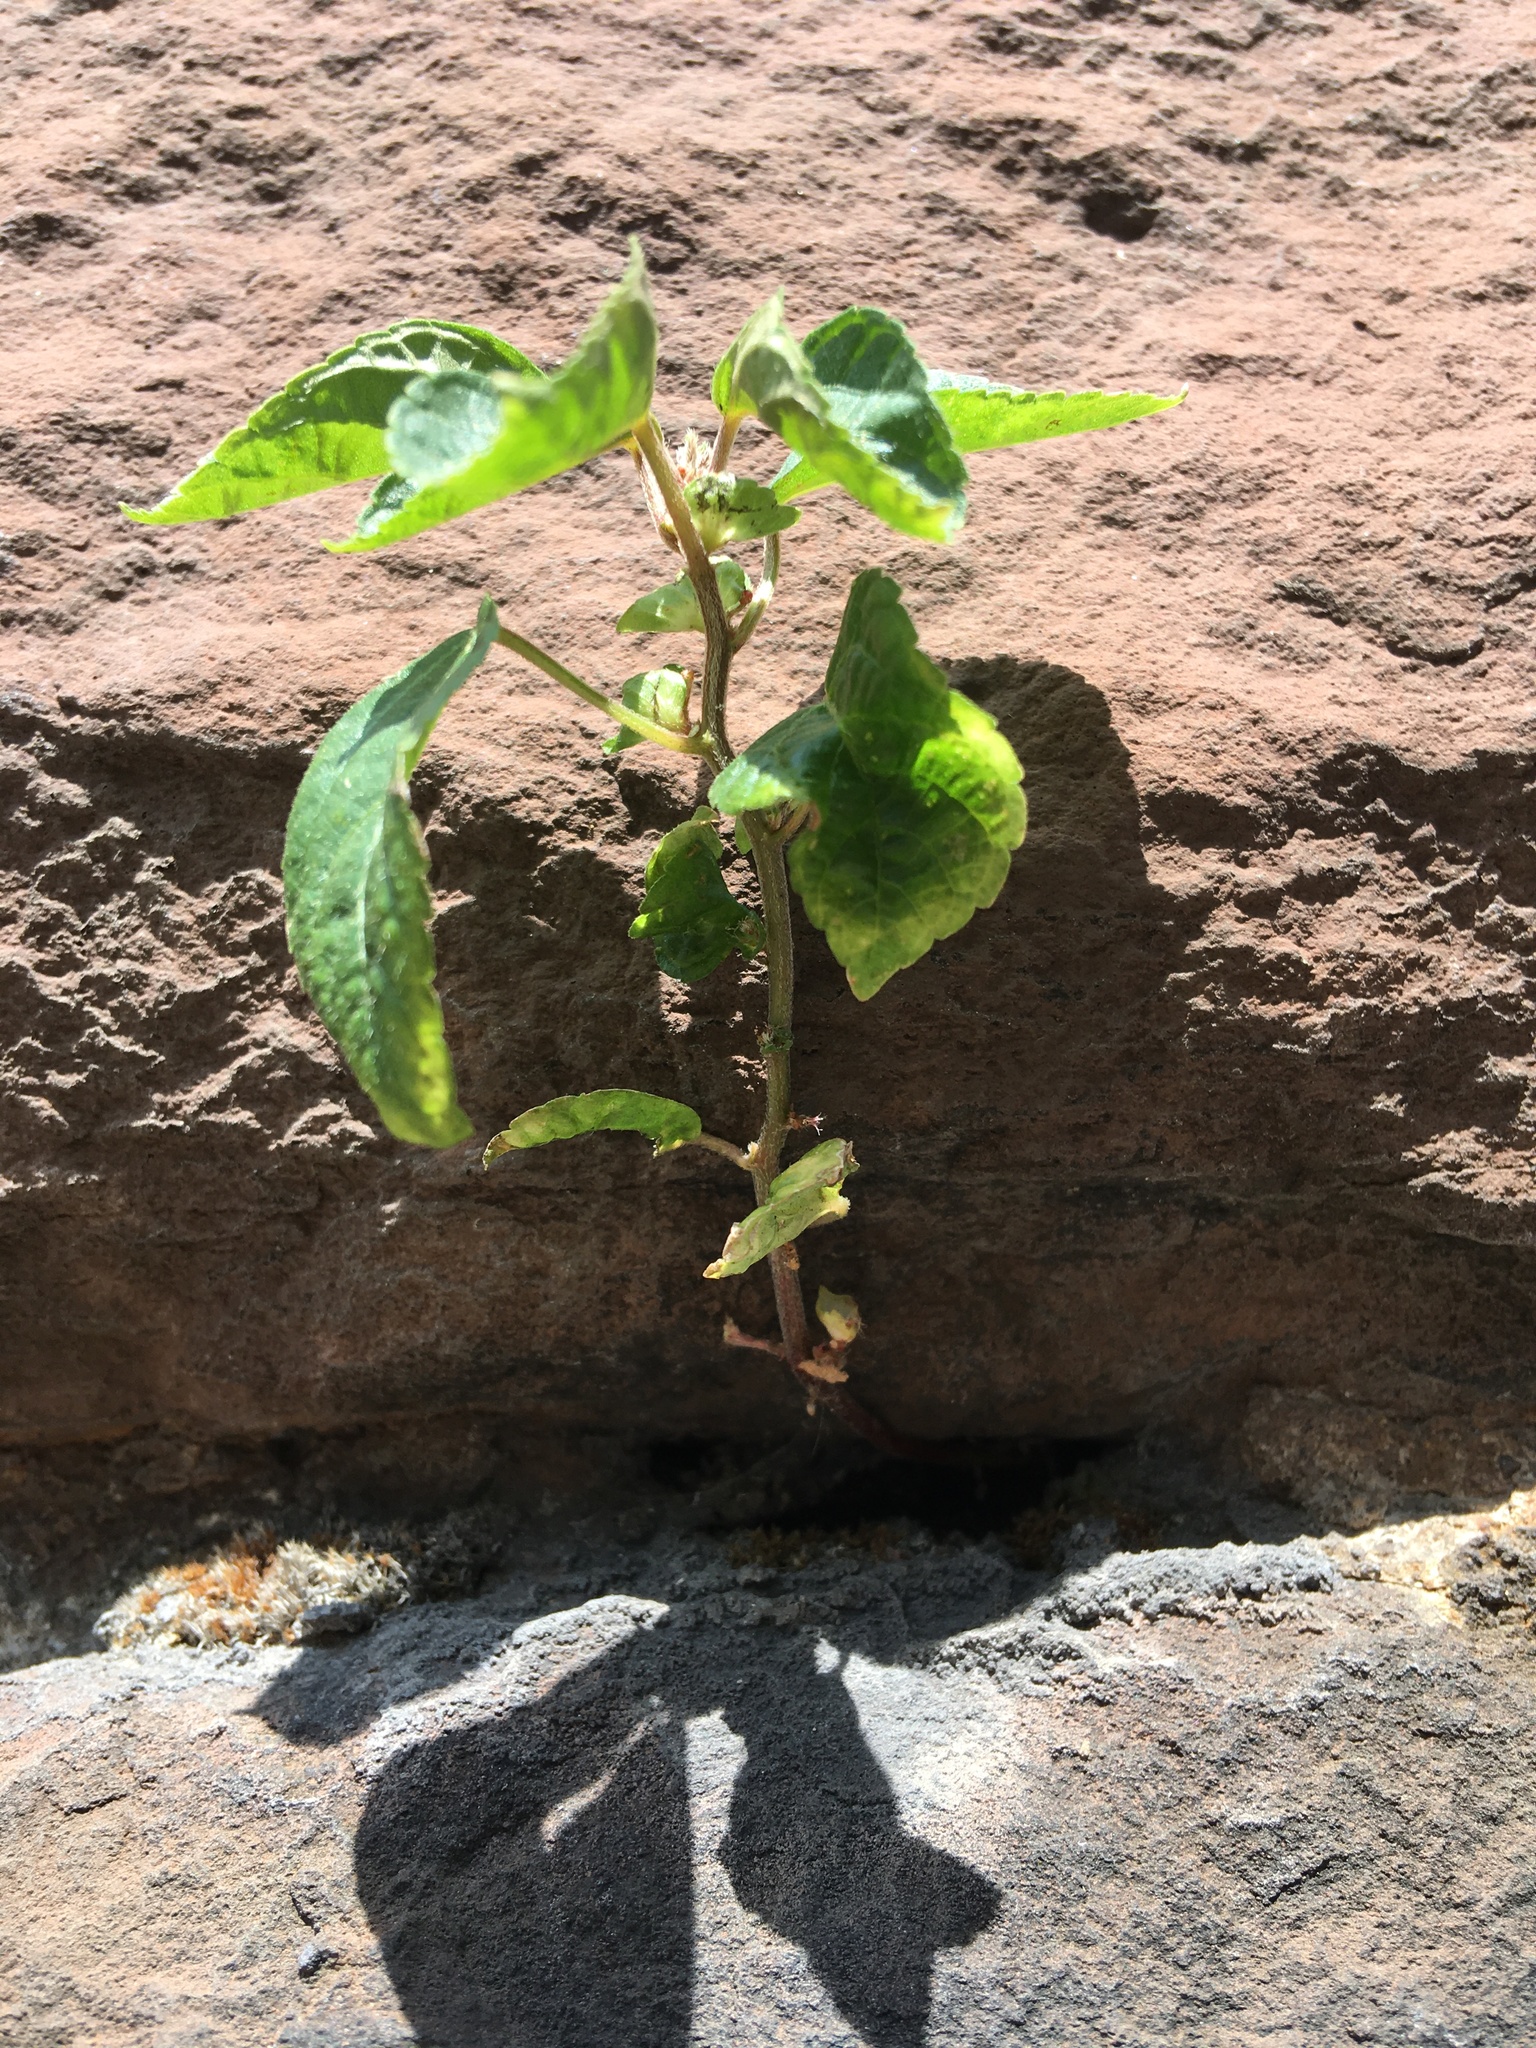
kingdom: Plantae
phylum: Tracheophyta
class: Magnoliopsida
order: Malpighiales
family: Euphorbiaceae
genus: Acalypha
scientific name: Acalypha australis
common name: Asian copperleaf
